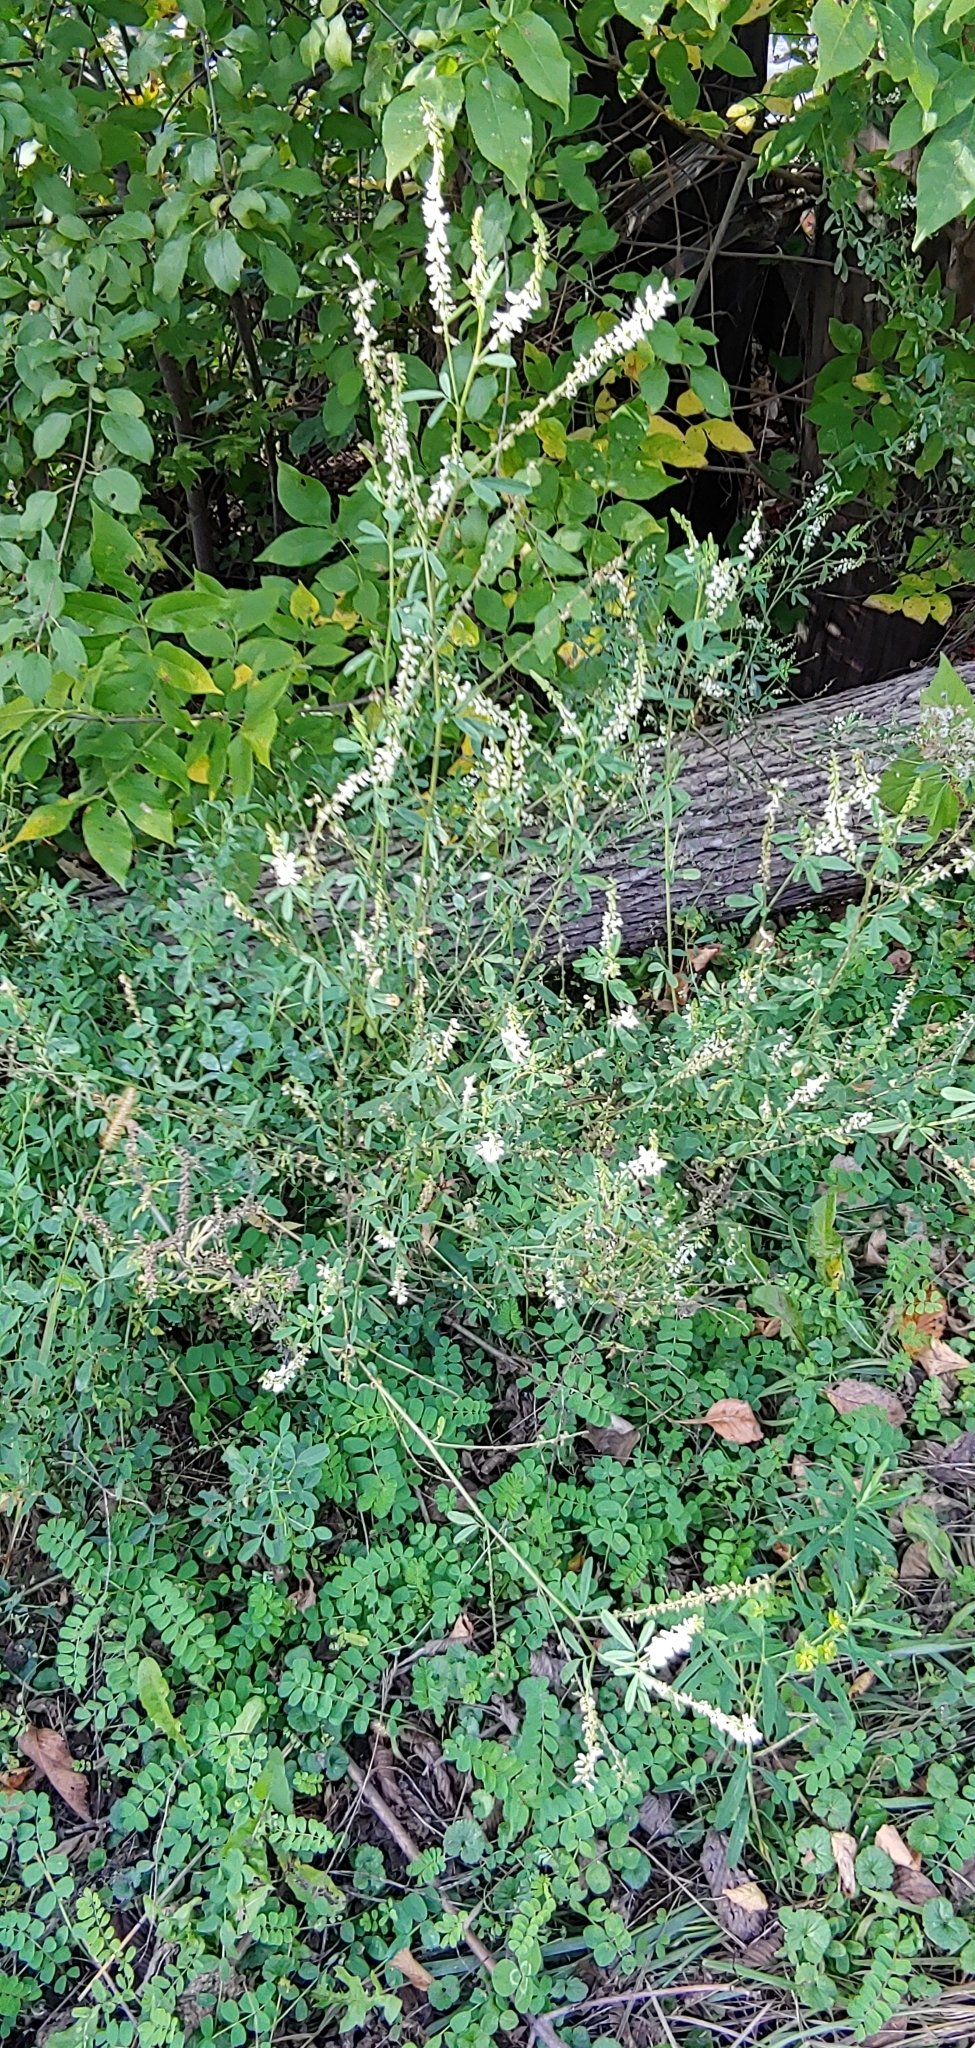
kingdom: Plantae
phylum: Tracheophyta
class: Magnoliopsida
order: Fabales
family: Fabaceae
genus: Melilotus
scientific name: Melilotus albus
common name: White melilot
